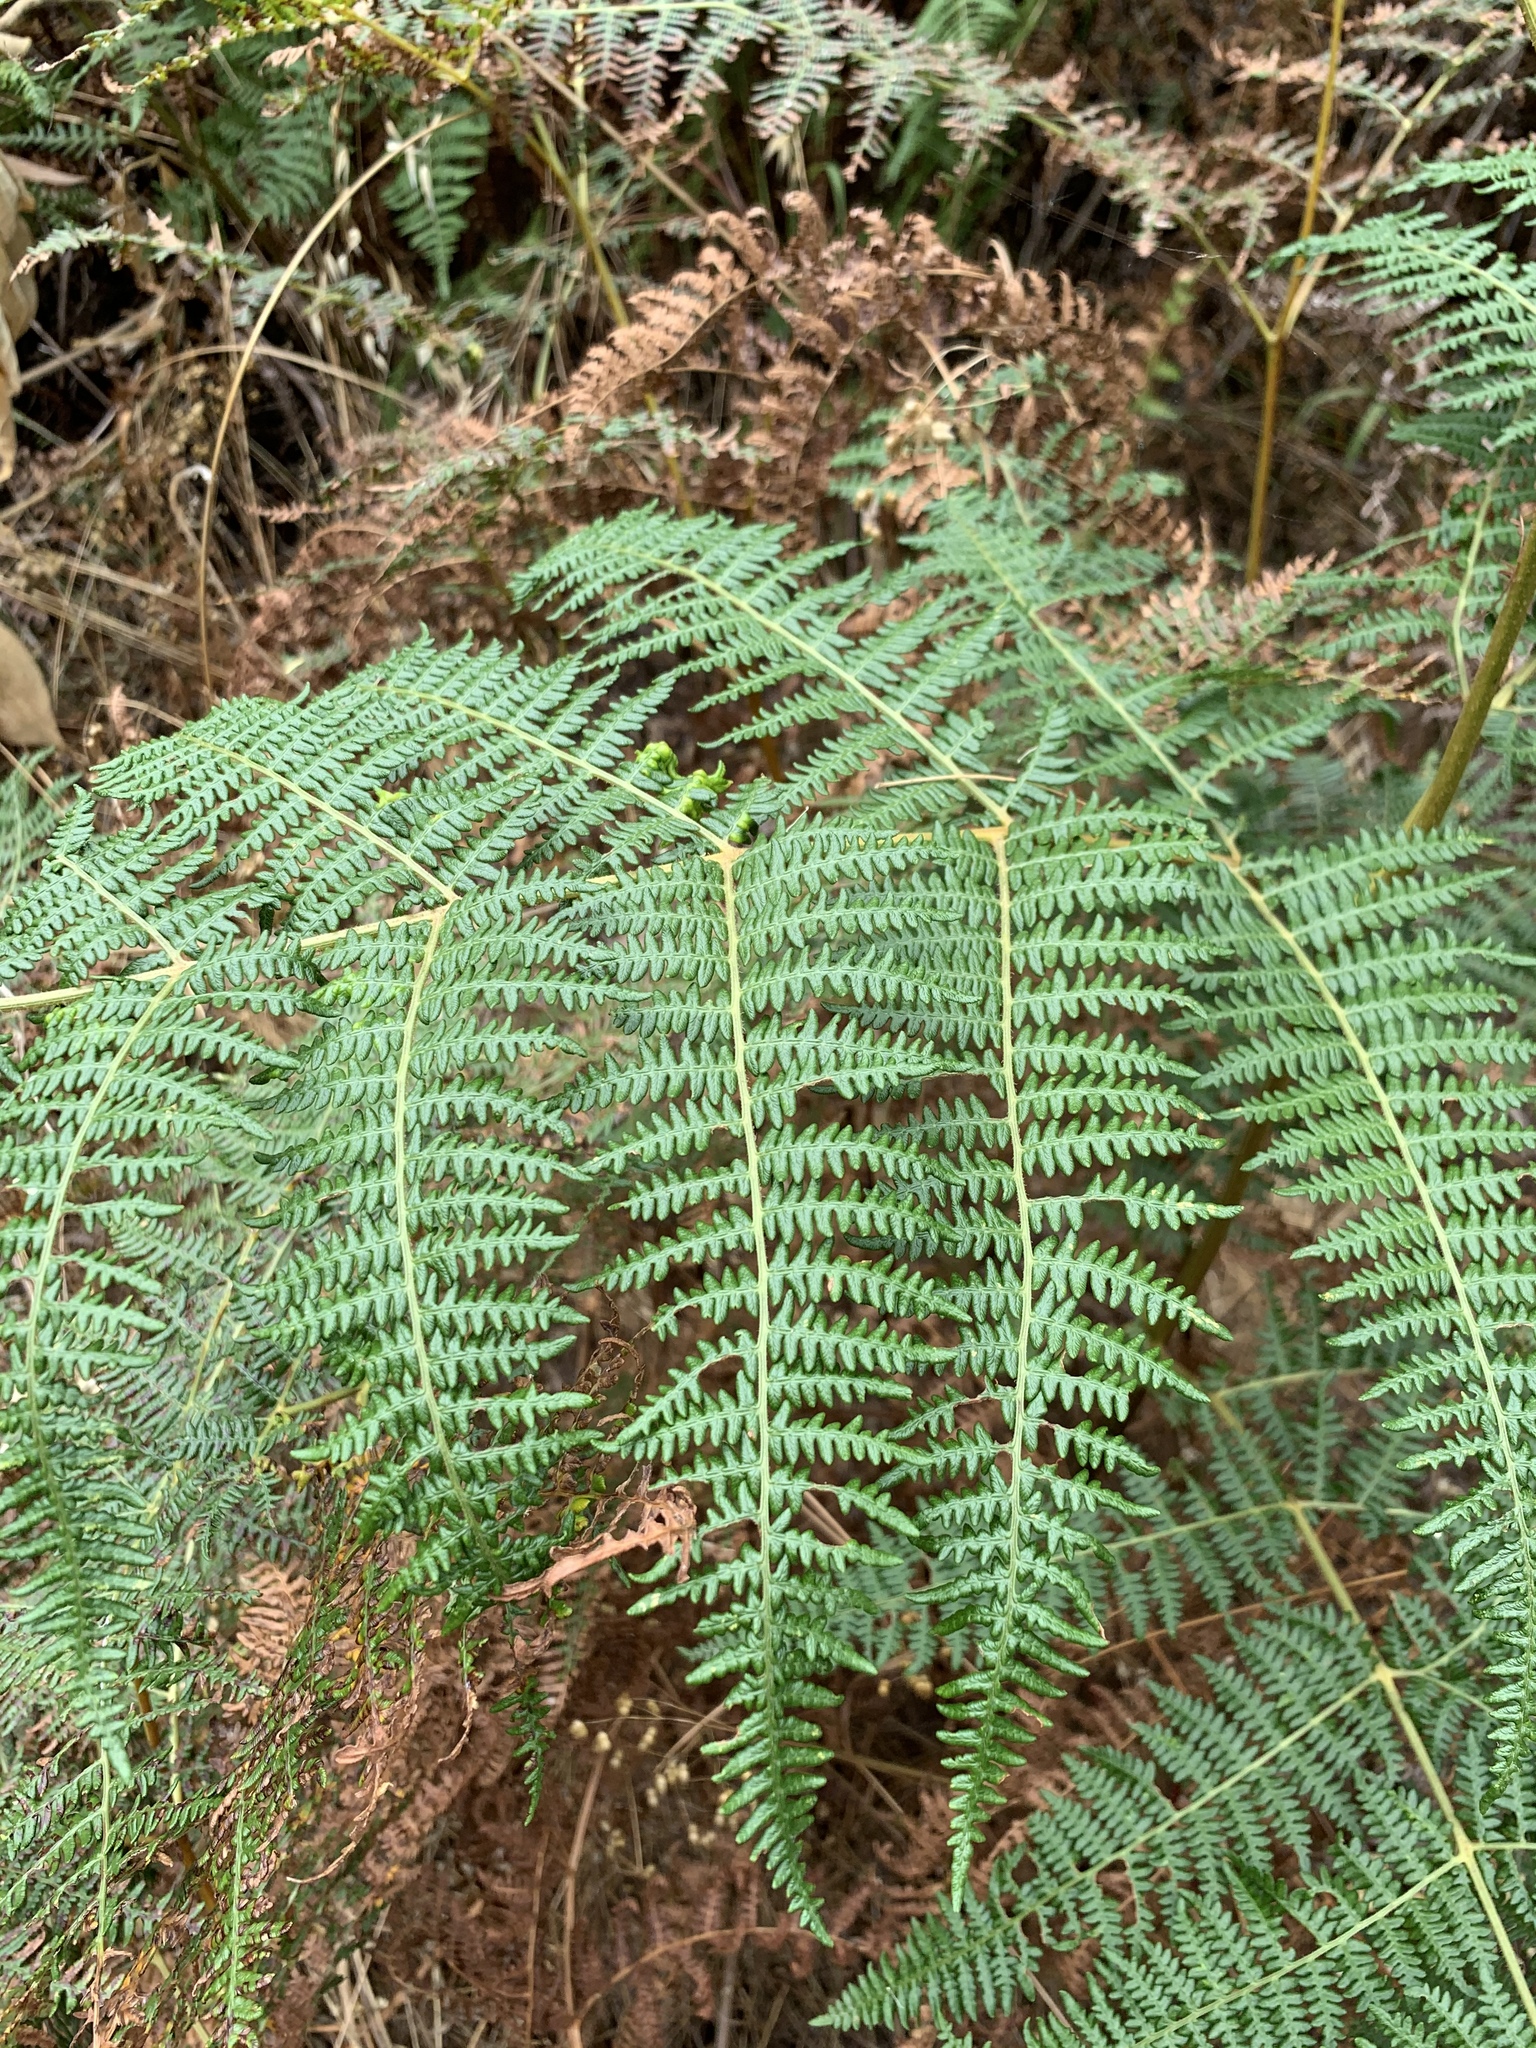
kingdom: Plantae
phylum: Tracheophyta
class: Polypodiopsida
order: Polypodiales
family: Dennstaedtiaceae
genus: Pteridium
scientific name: Pteridium aquilinum
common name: Bracken
